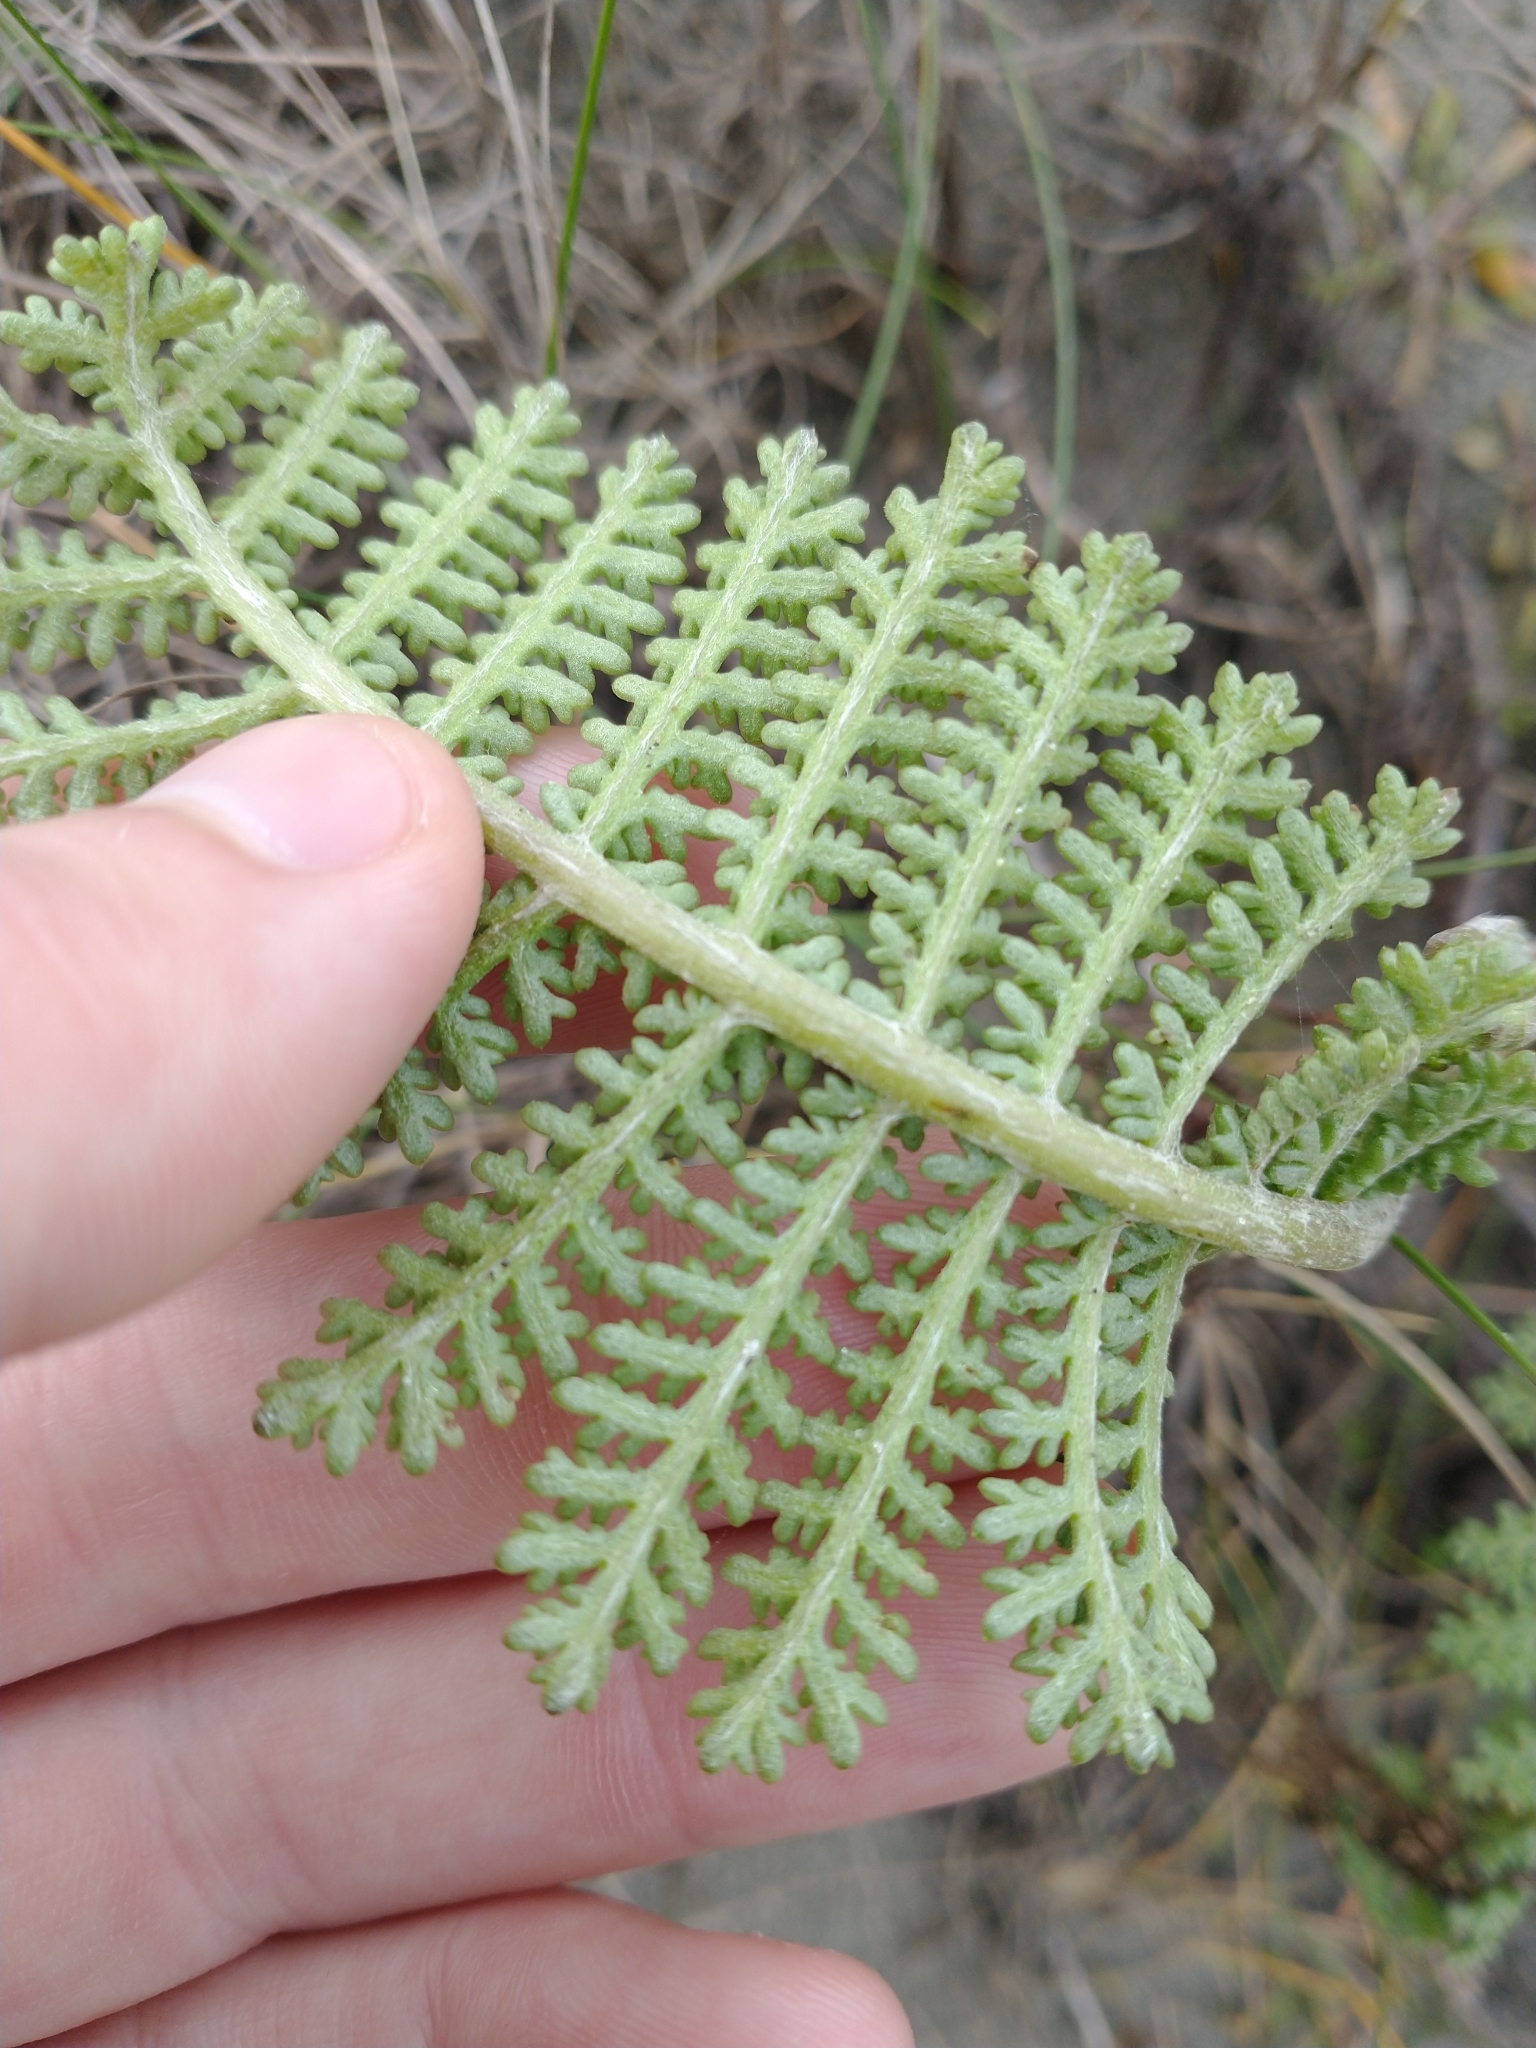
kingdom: Plantae
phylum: Tracheophyta
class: Magnoliopsida
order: Asterales
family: Asteraceae
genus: Tanacetum
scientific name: Tanacetum bipinnatum
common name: Dwarf tansy
